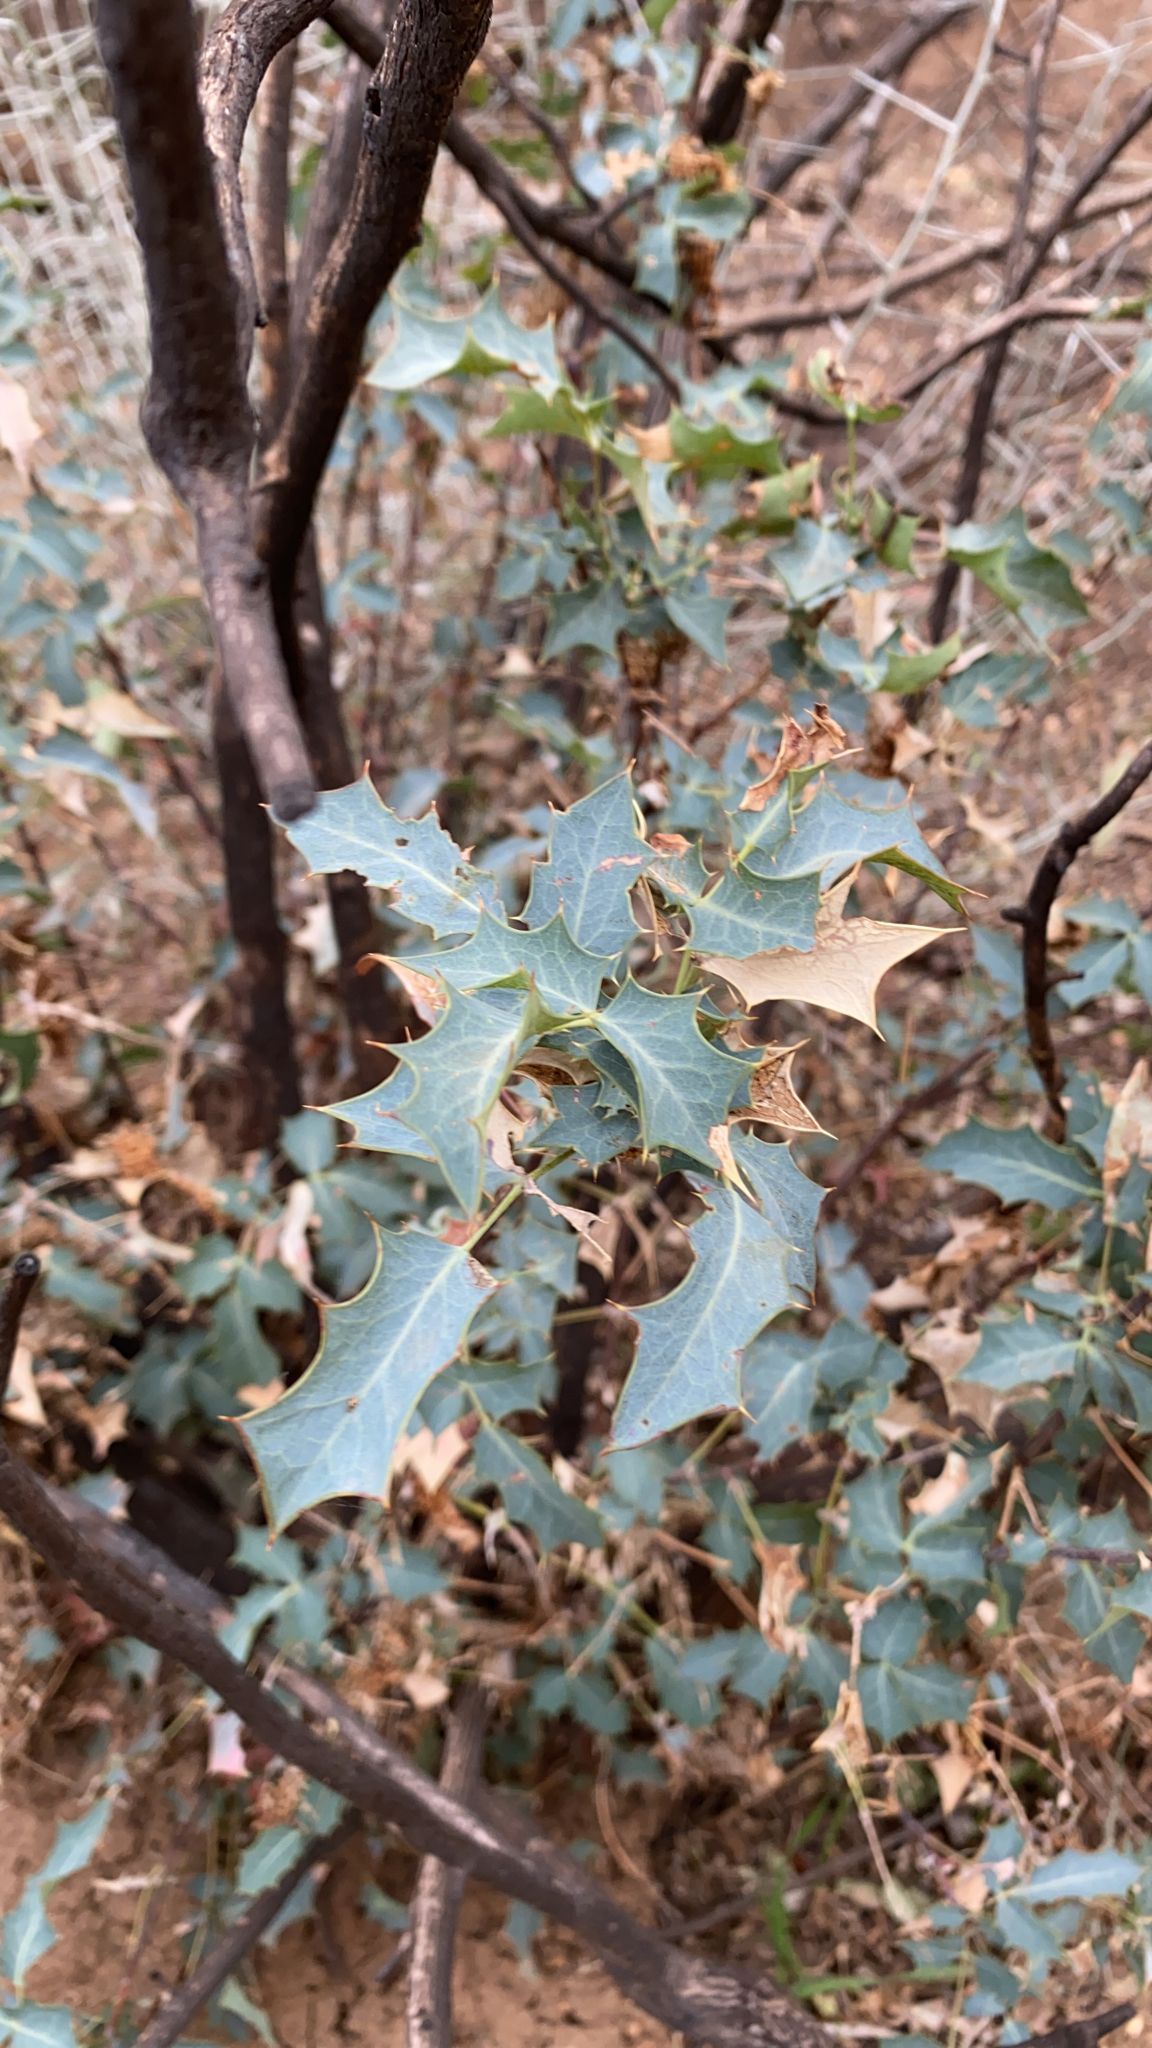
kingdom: Plantae
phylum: Tracheophyta
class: Magnoliopsida
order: Ranunculales
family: Berberidaceae
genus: Alloberberis
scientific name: Alloberberis fremontii
